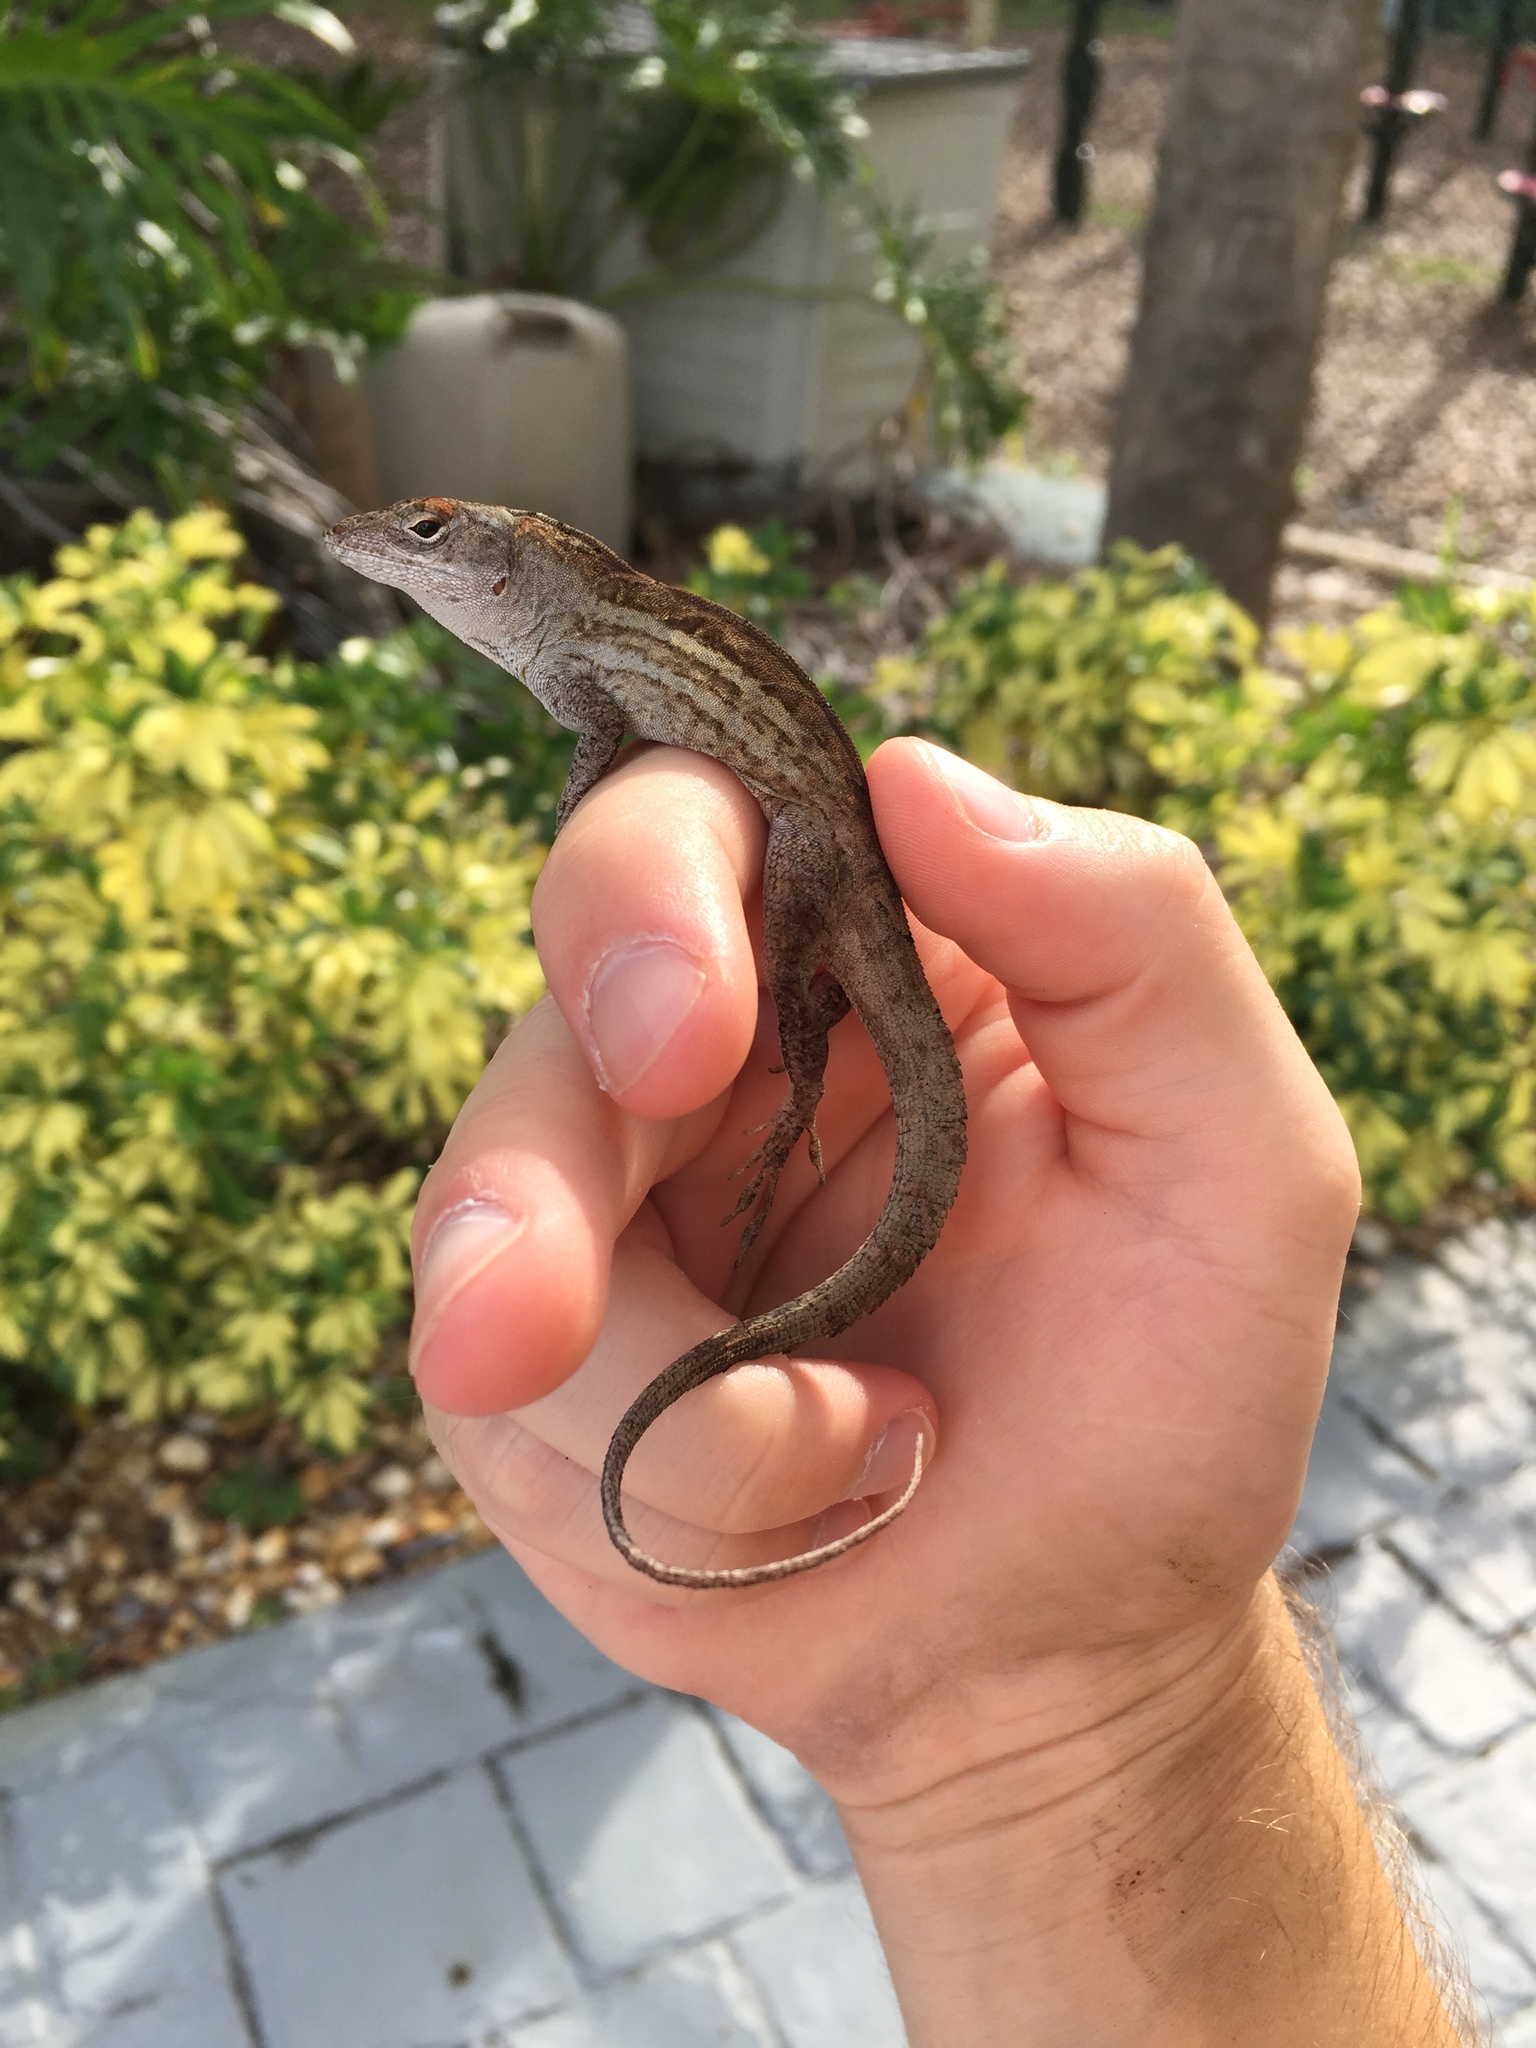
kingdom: Animalia
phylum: Chordata
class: Squamata
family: Dactyloidae
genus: Anolis
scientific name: Anolis sagrei
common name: Brown anole
